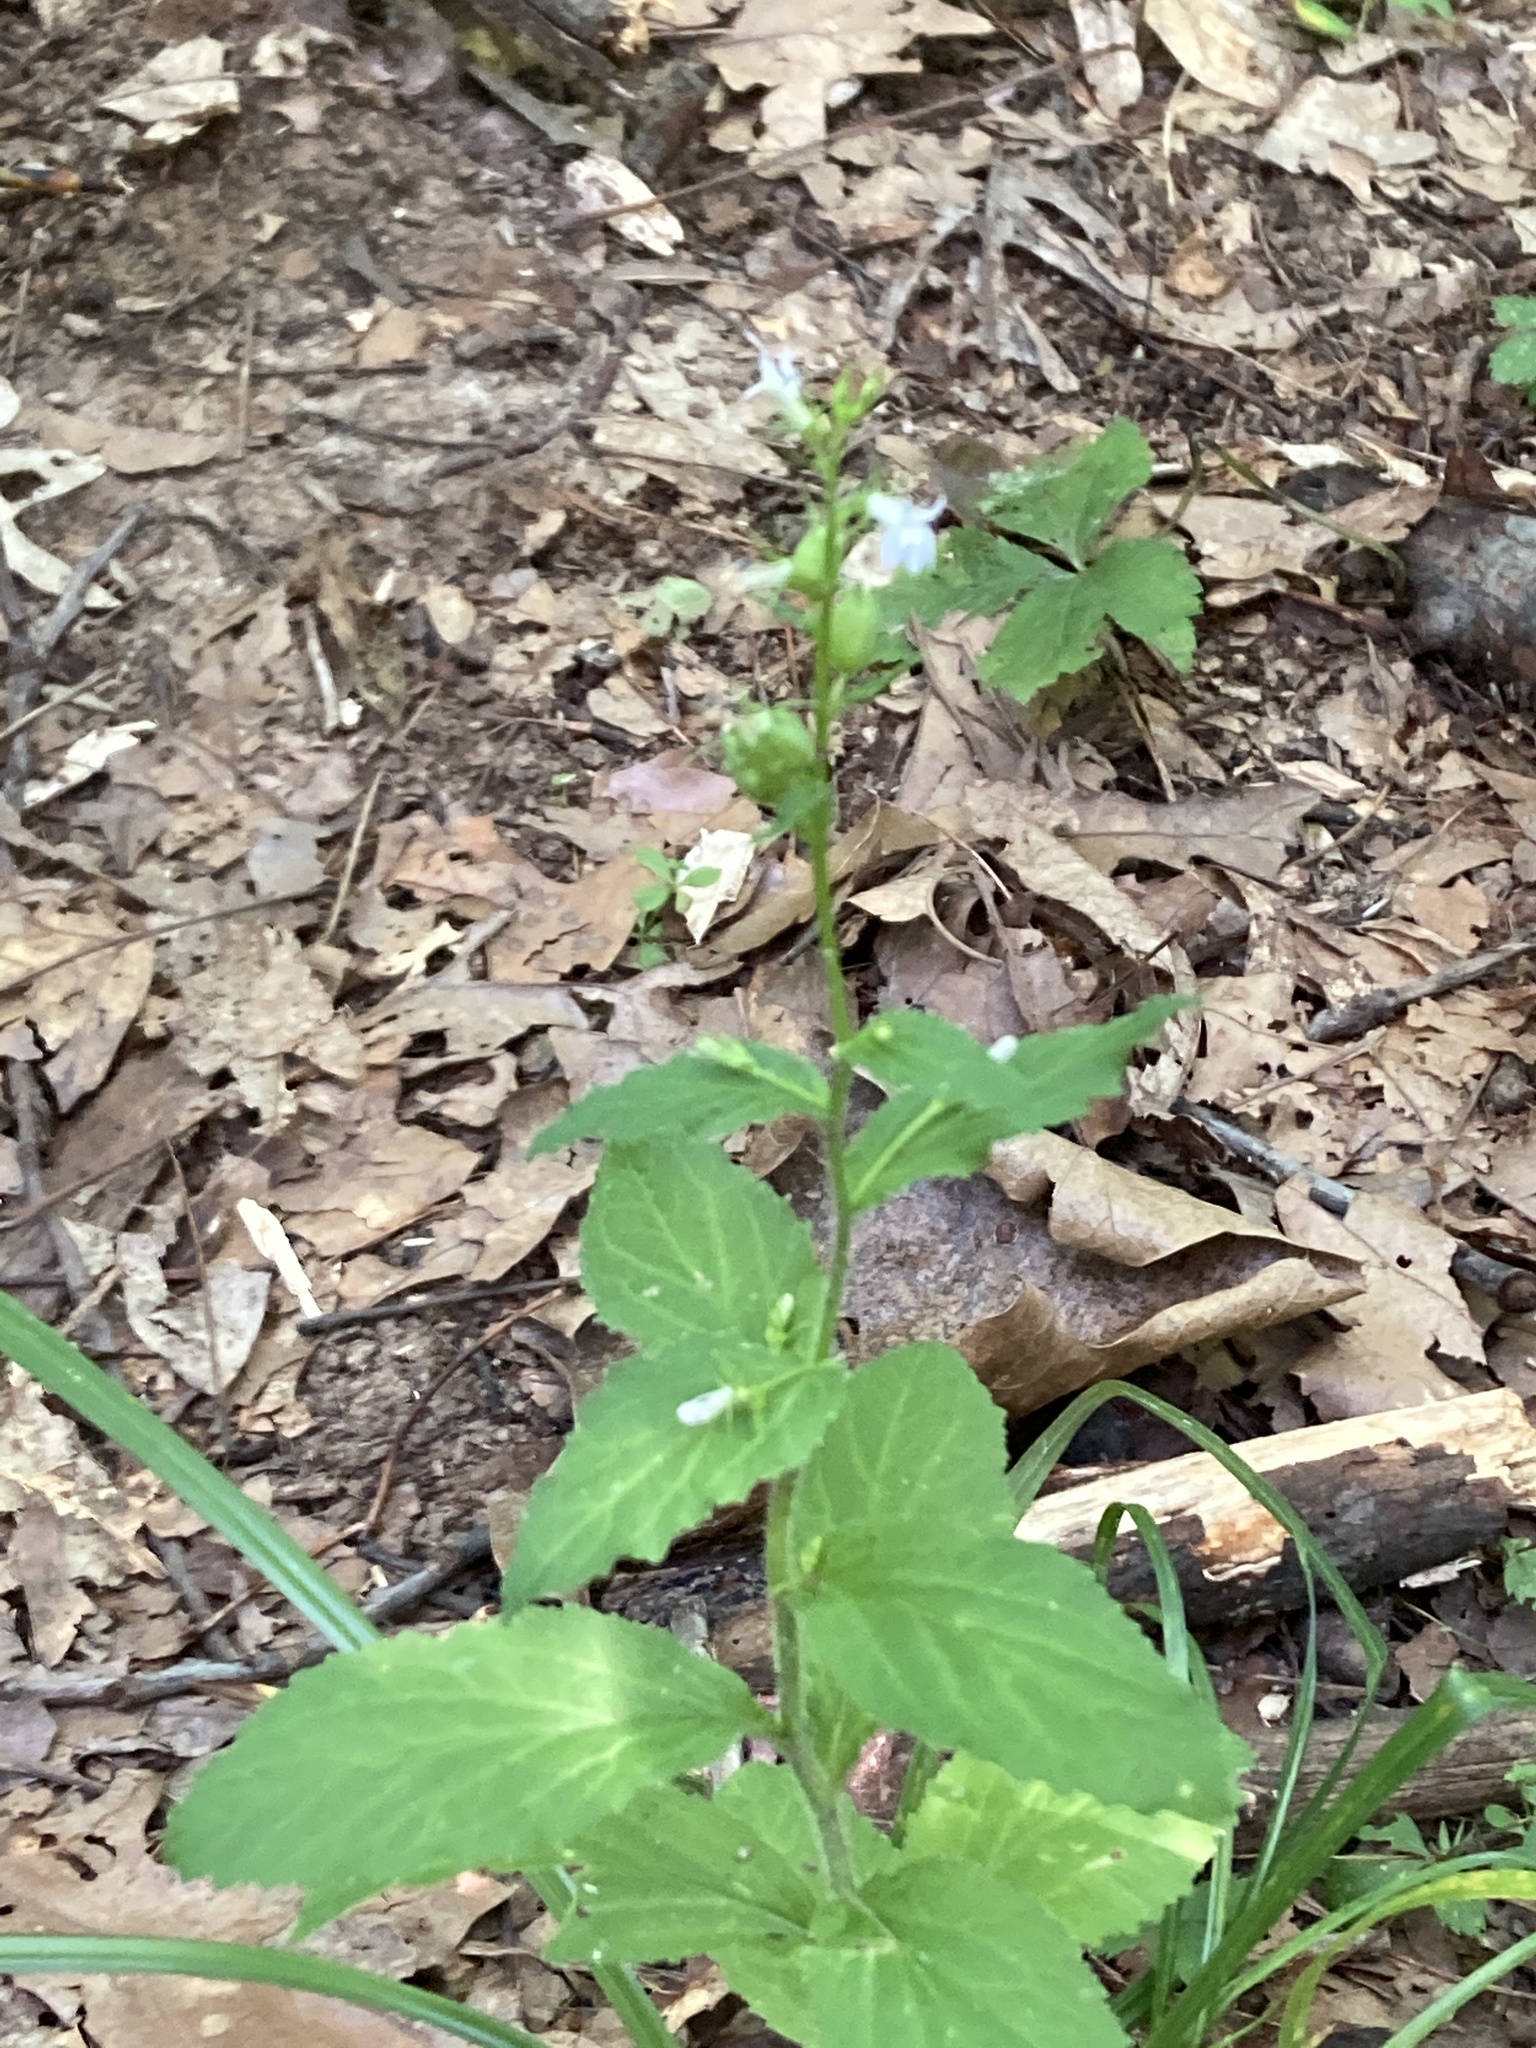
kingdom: Plantae
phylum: Tracheophyta
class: Magnoliopsida
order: Asterales
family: Campanulaceae
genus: Lobelia
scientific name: Lobelia inflata
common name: Indian tobacco
